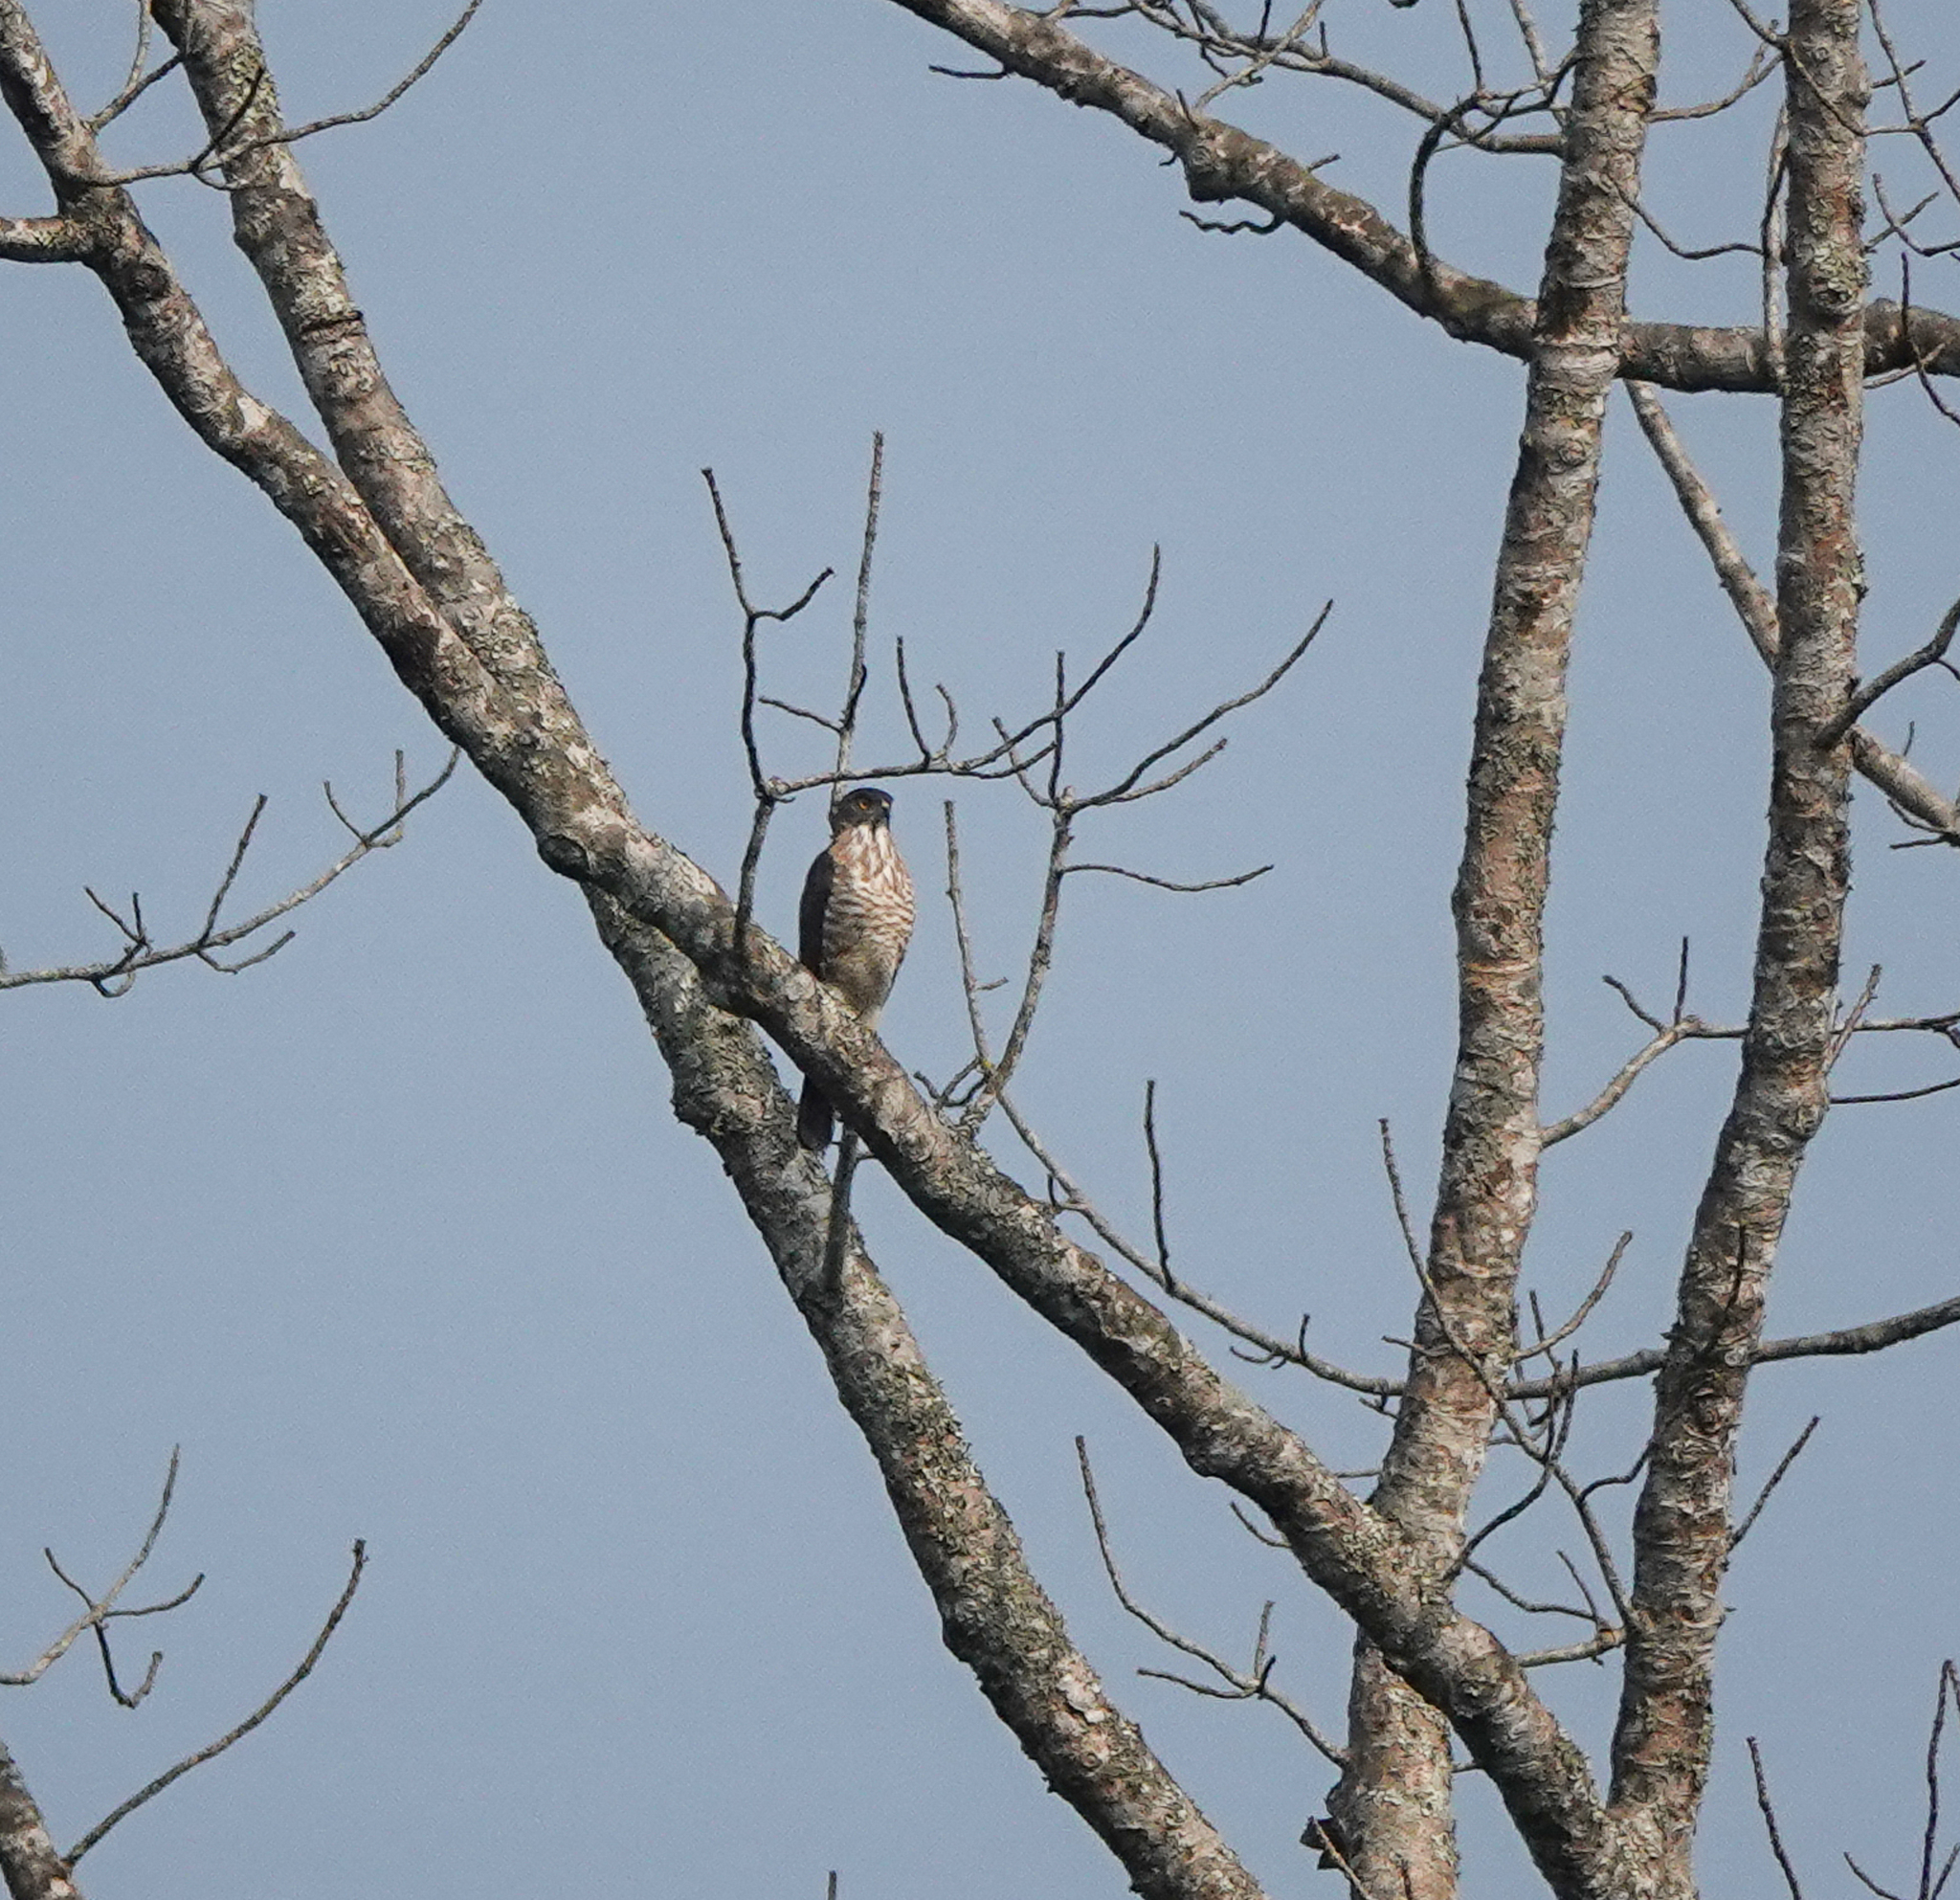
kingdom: Animalia
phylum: Chordata
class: Aves
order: Accipitriformes
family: Accipitridae
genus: Accipiter
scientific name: Accipiter trivirgatus
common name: Crested goshawk
